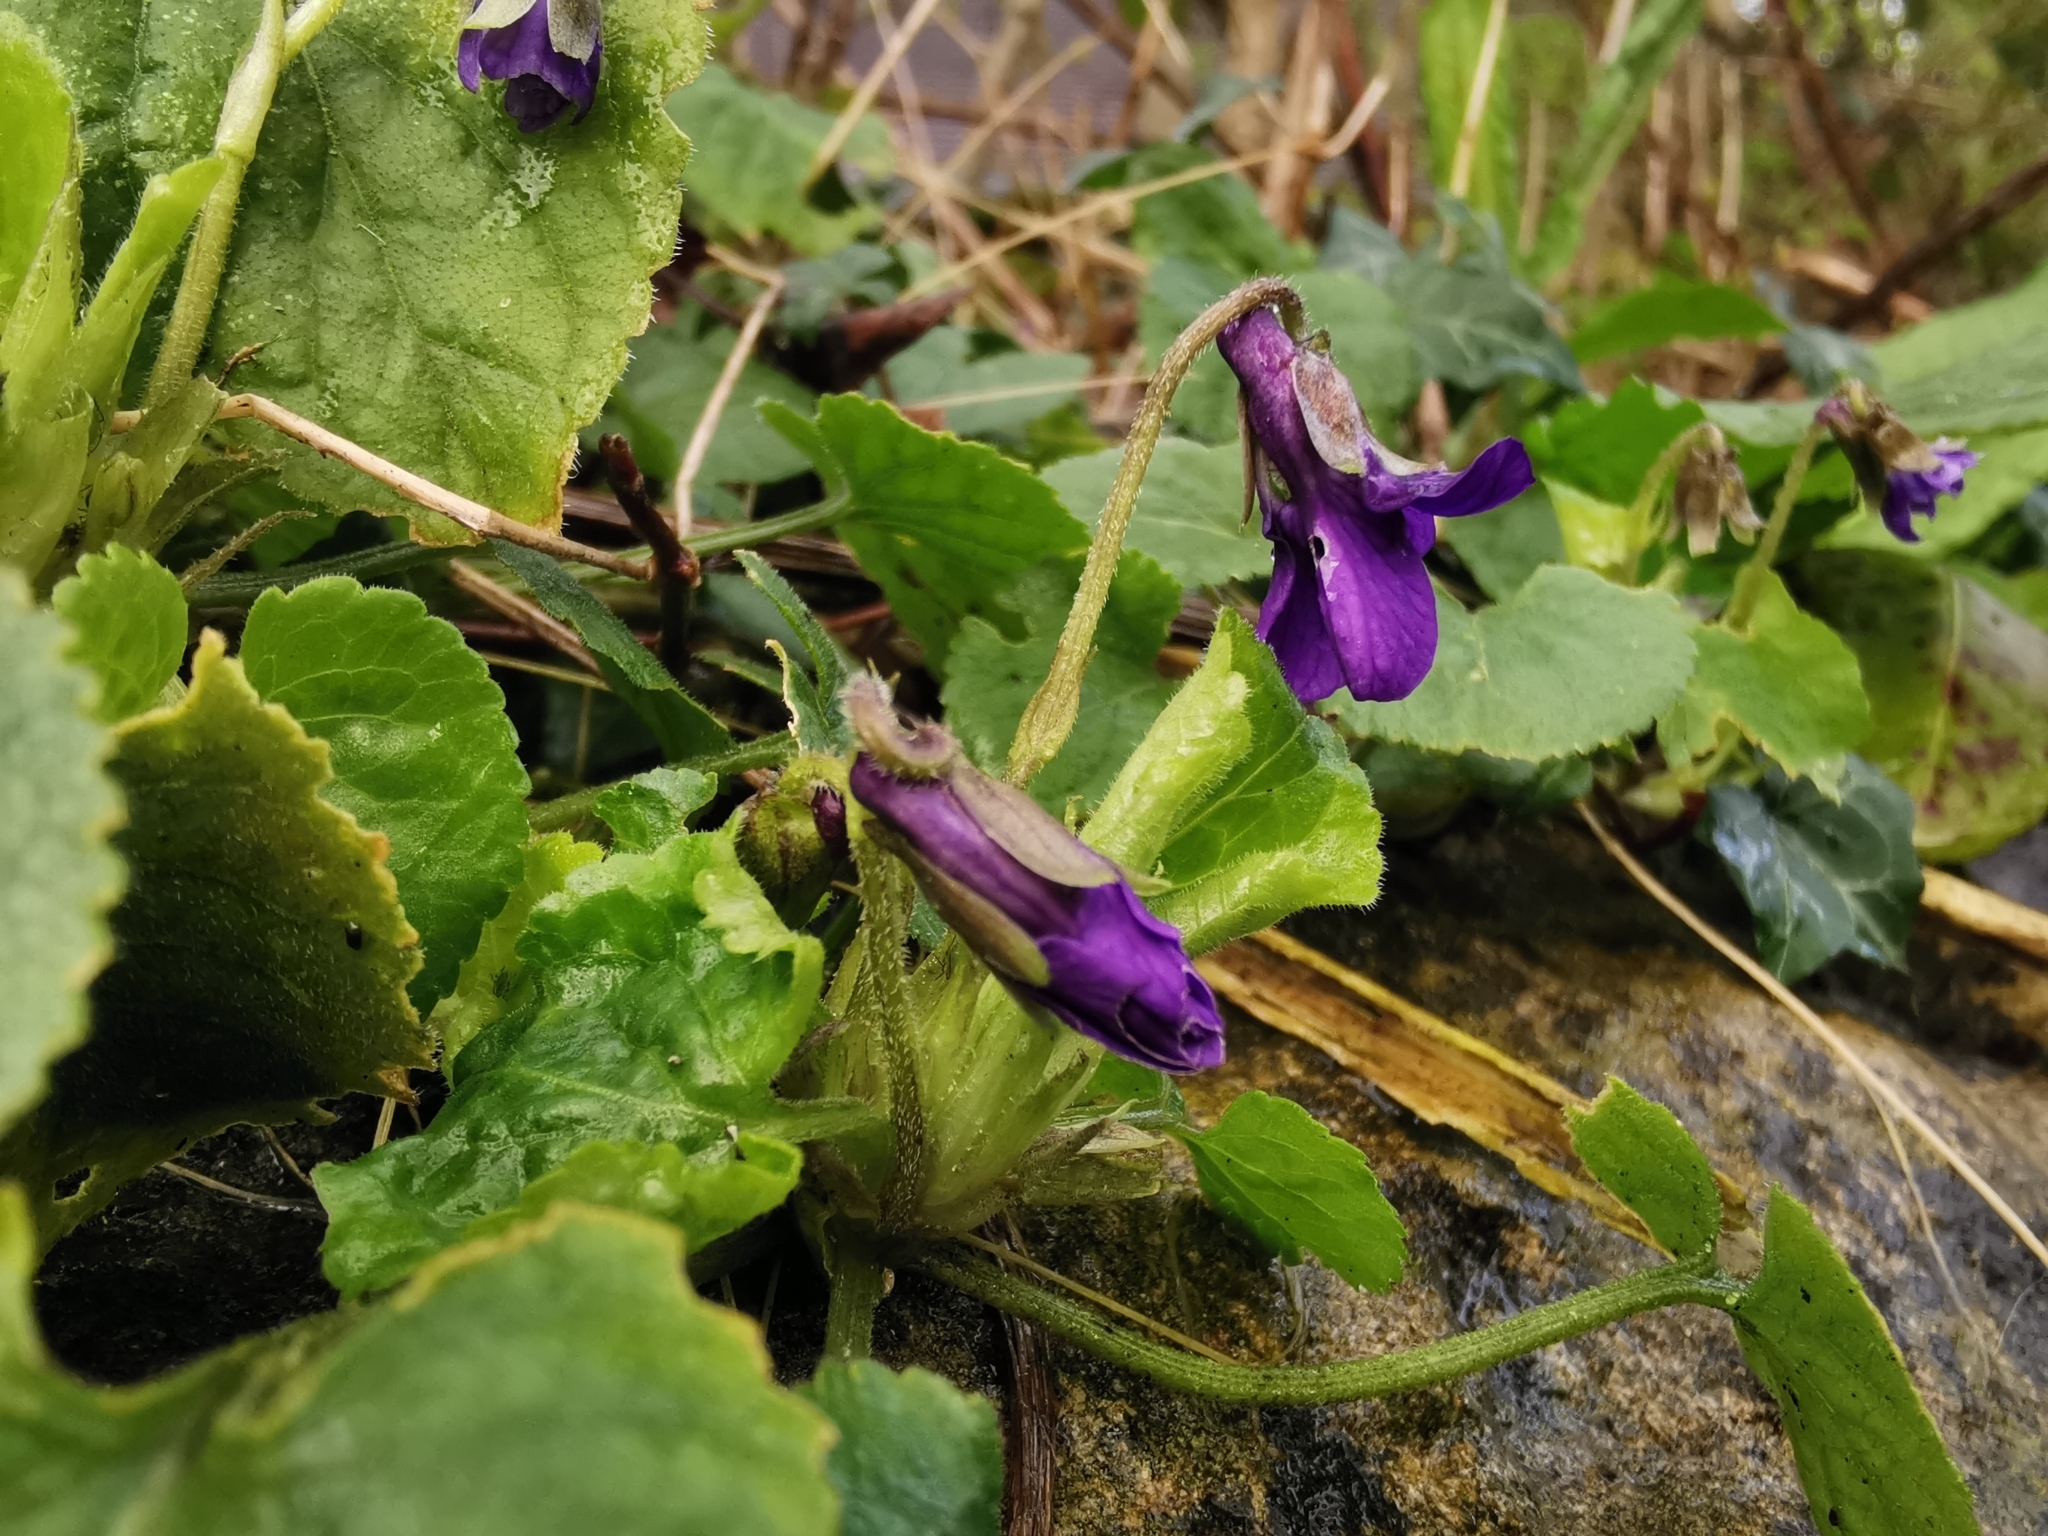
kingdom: Plantae
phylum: Tracheophyta
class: Magnoliopsida
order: Malpighiales
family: Violaceae
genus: Viola
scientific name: Viola odorata
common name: Sweet violet
